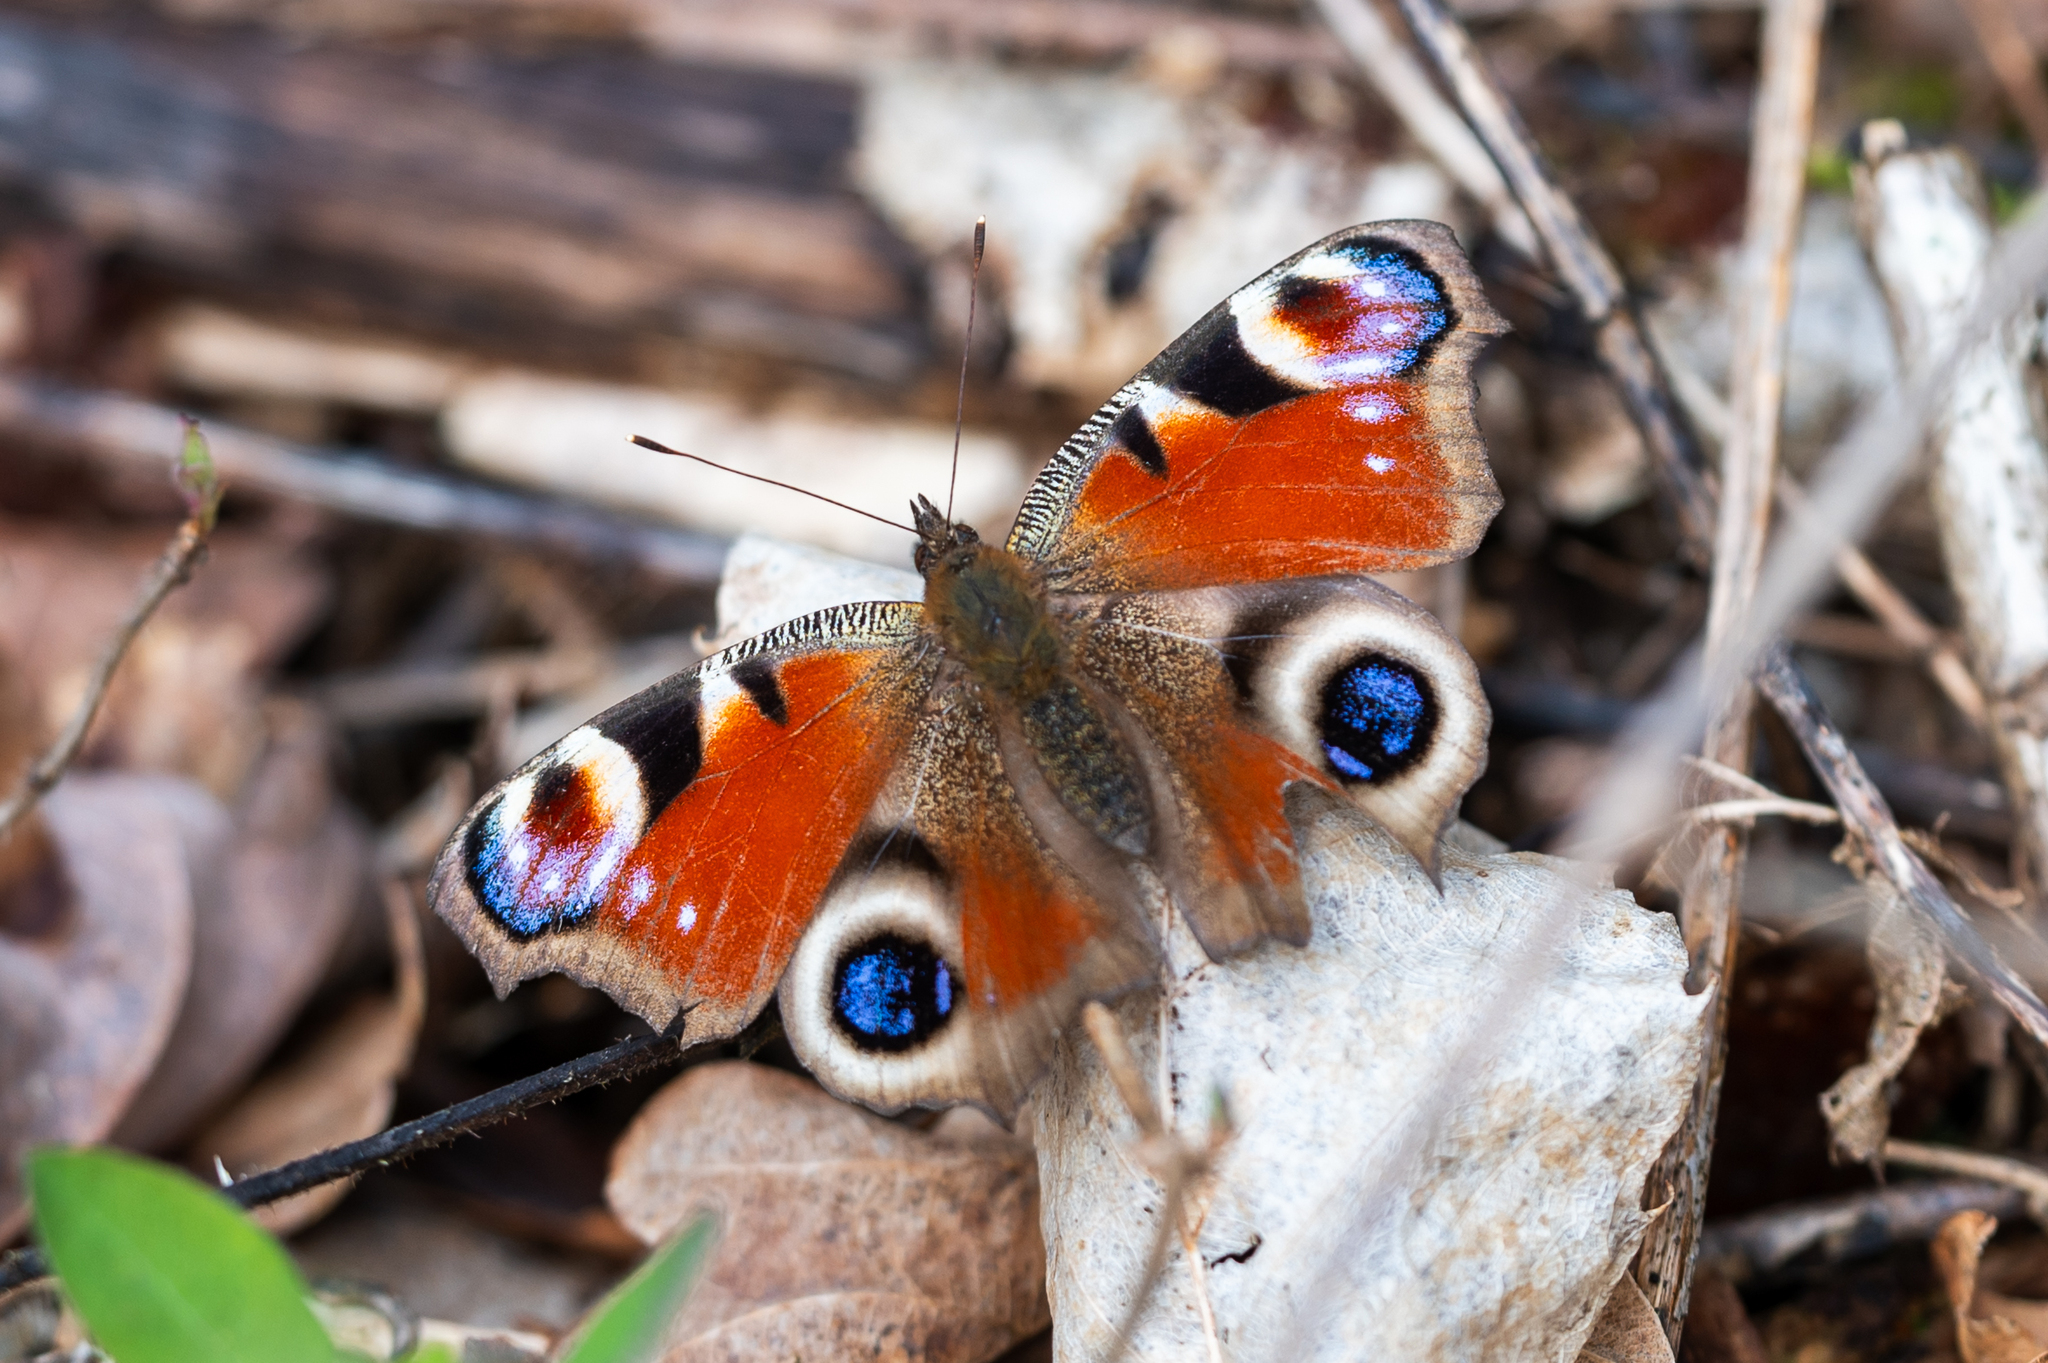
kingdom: Animalia
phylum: Arthropoda
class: Insecta
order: Lepidoptera
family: Nymphalidae
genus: Aglais
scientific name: Aglais io
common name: Peacock
